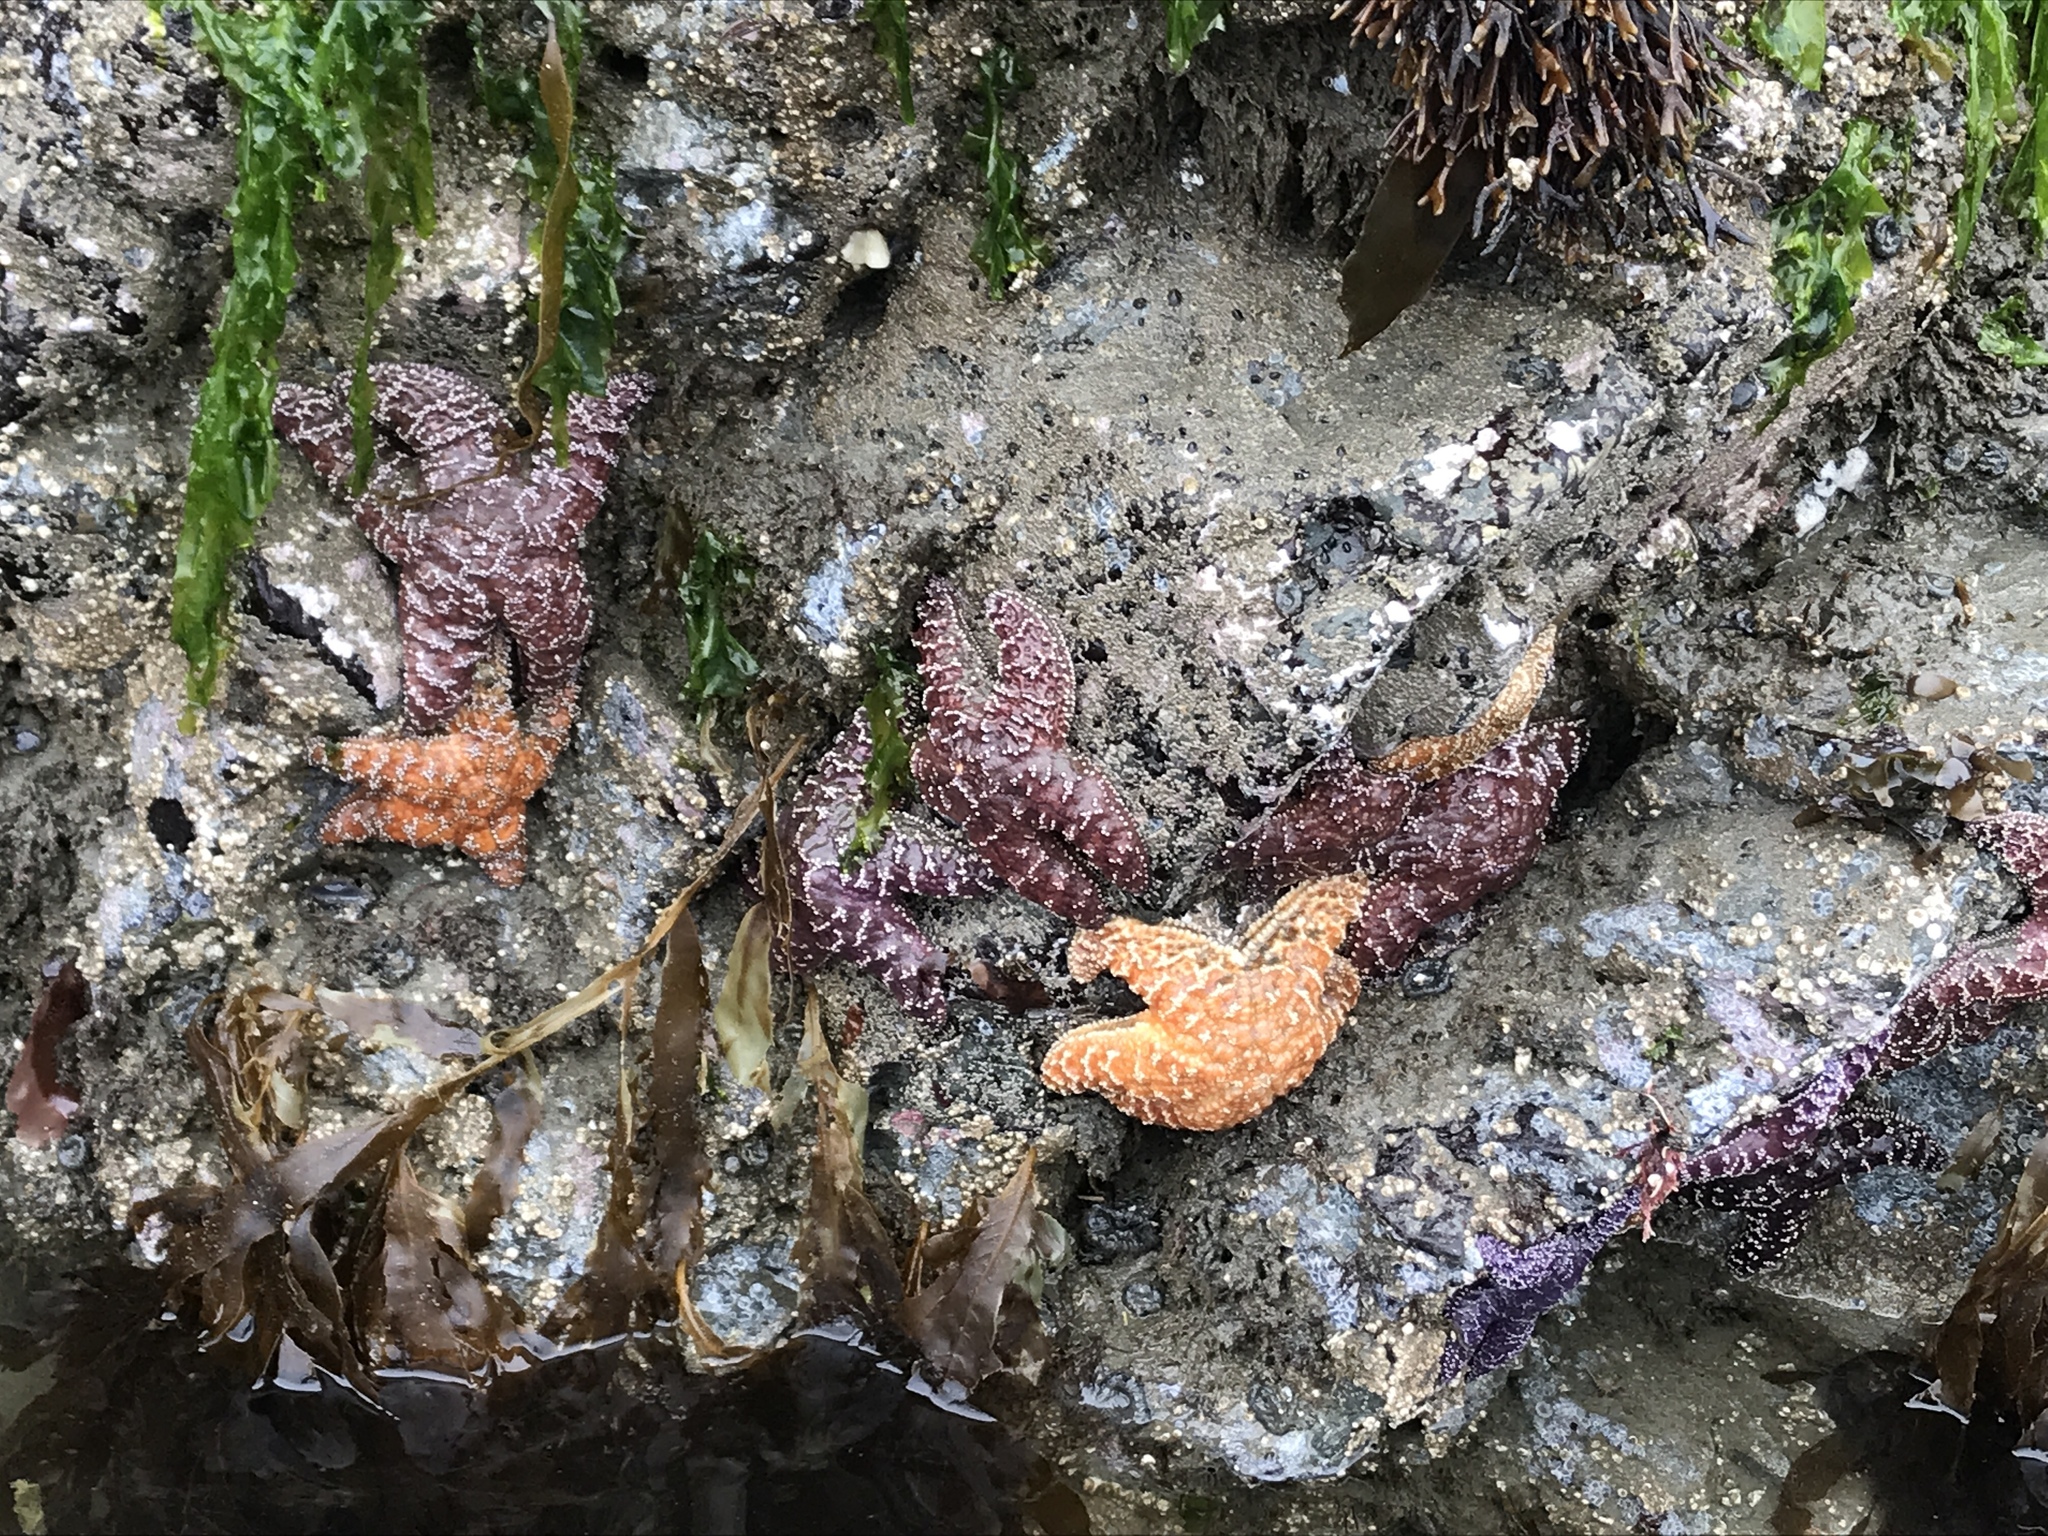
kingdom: Animalia
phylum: Echinodermata
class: Asteroidea
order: Forcipulatida
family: Asteriidae
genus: Pisaster
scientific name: Pisaster ochraceus
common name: Ochre stars
